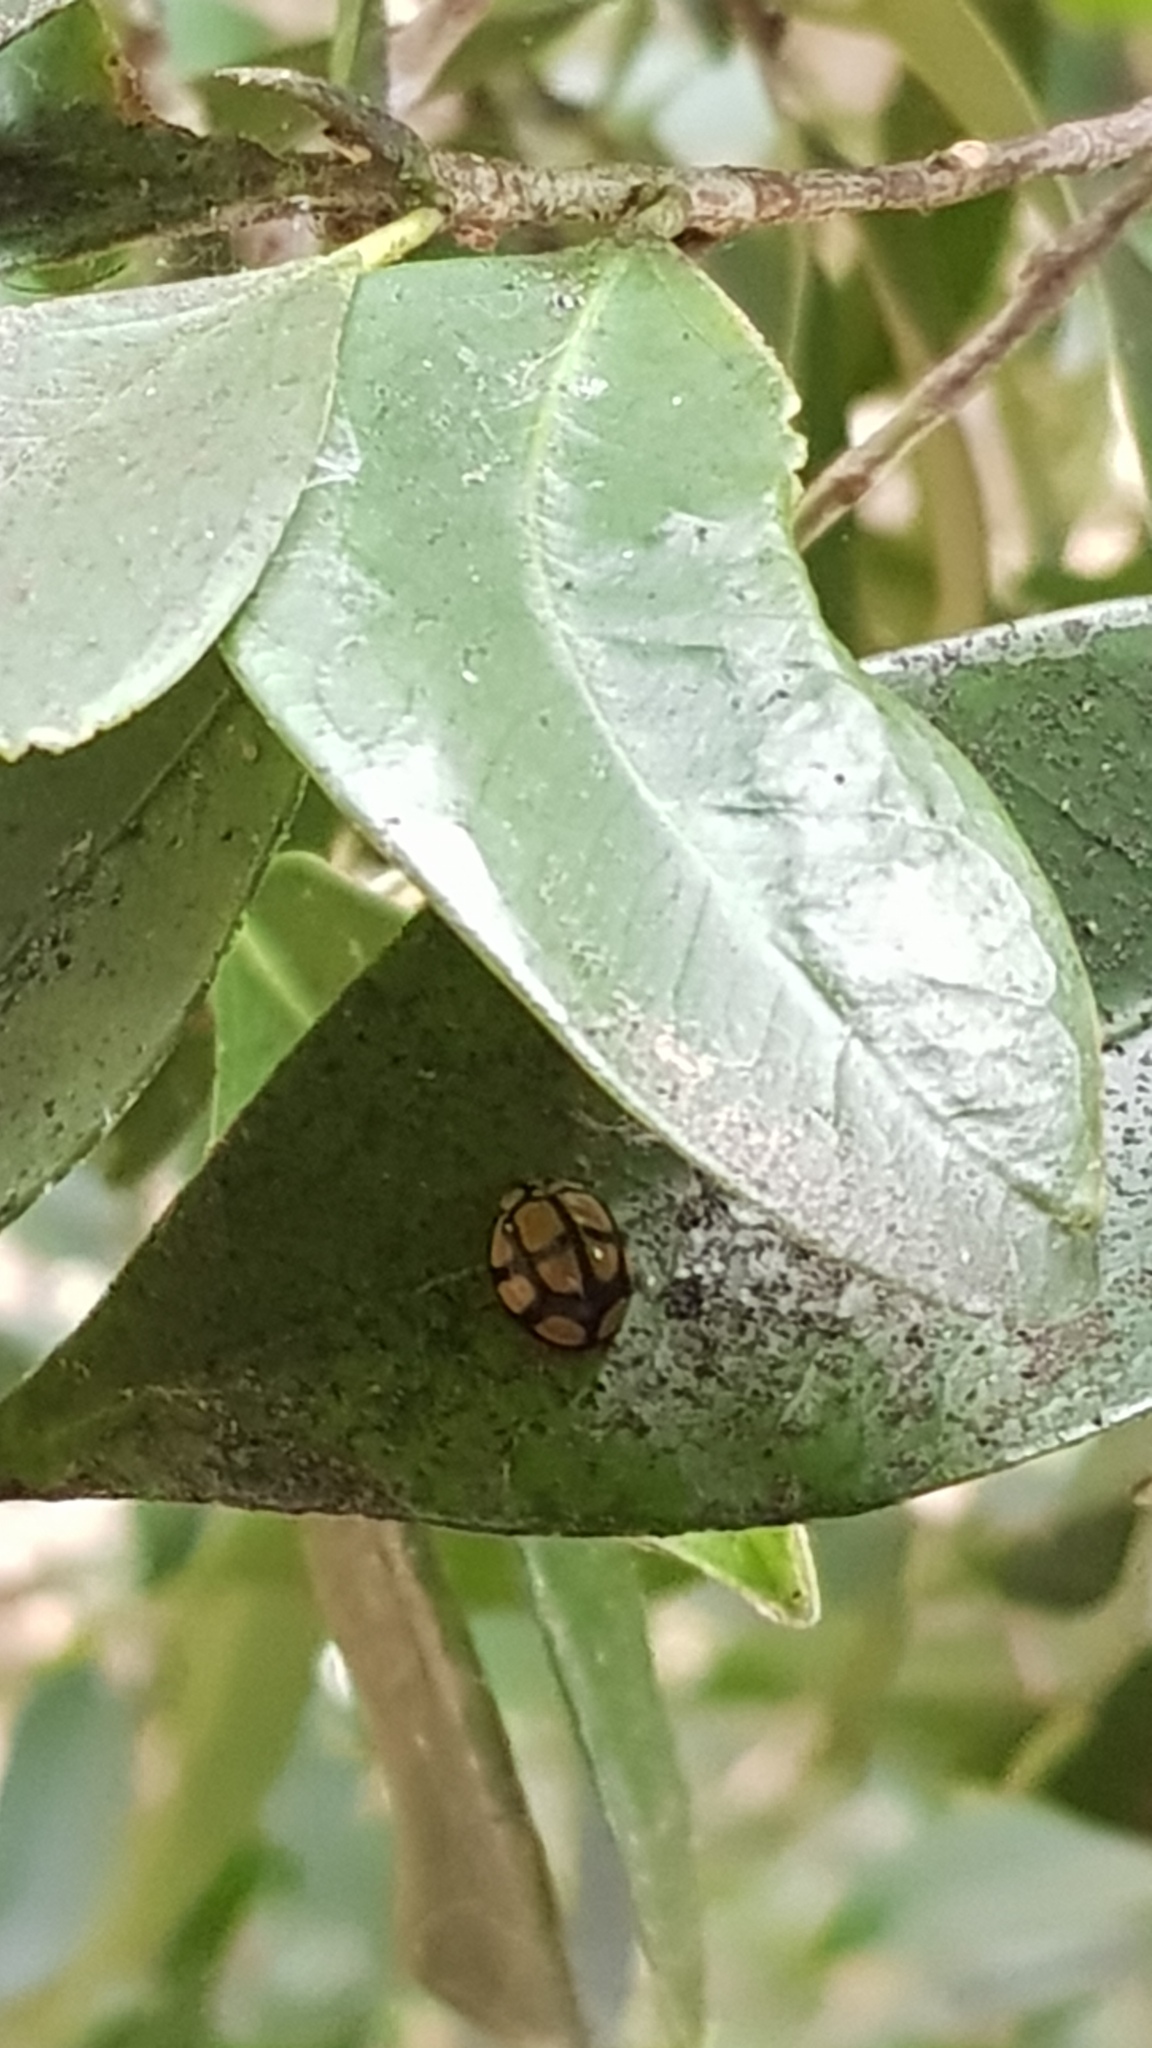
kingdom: Animalia
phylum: Arthropoda
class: Insecta
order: Coleoptera
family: Coccinellidae
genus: Harmonia
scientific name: Harmonia
